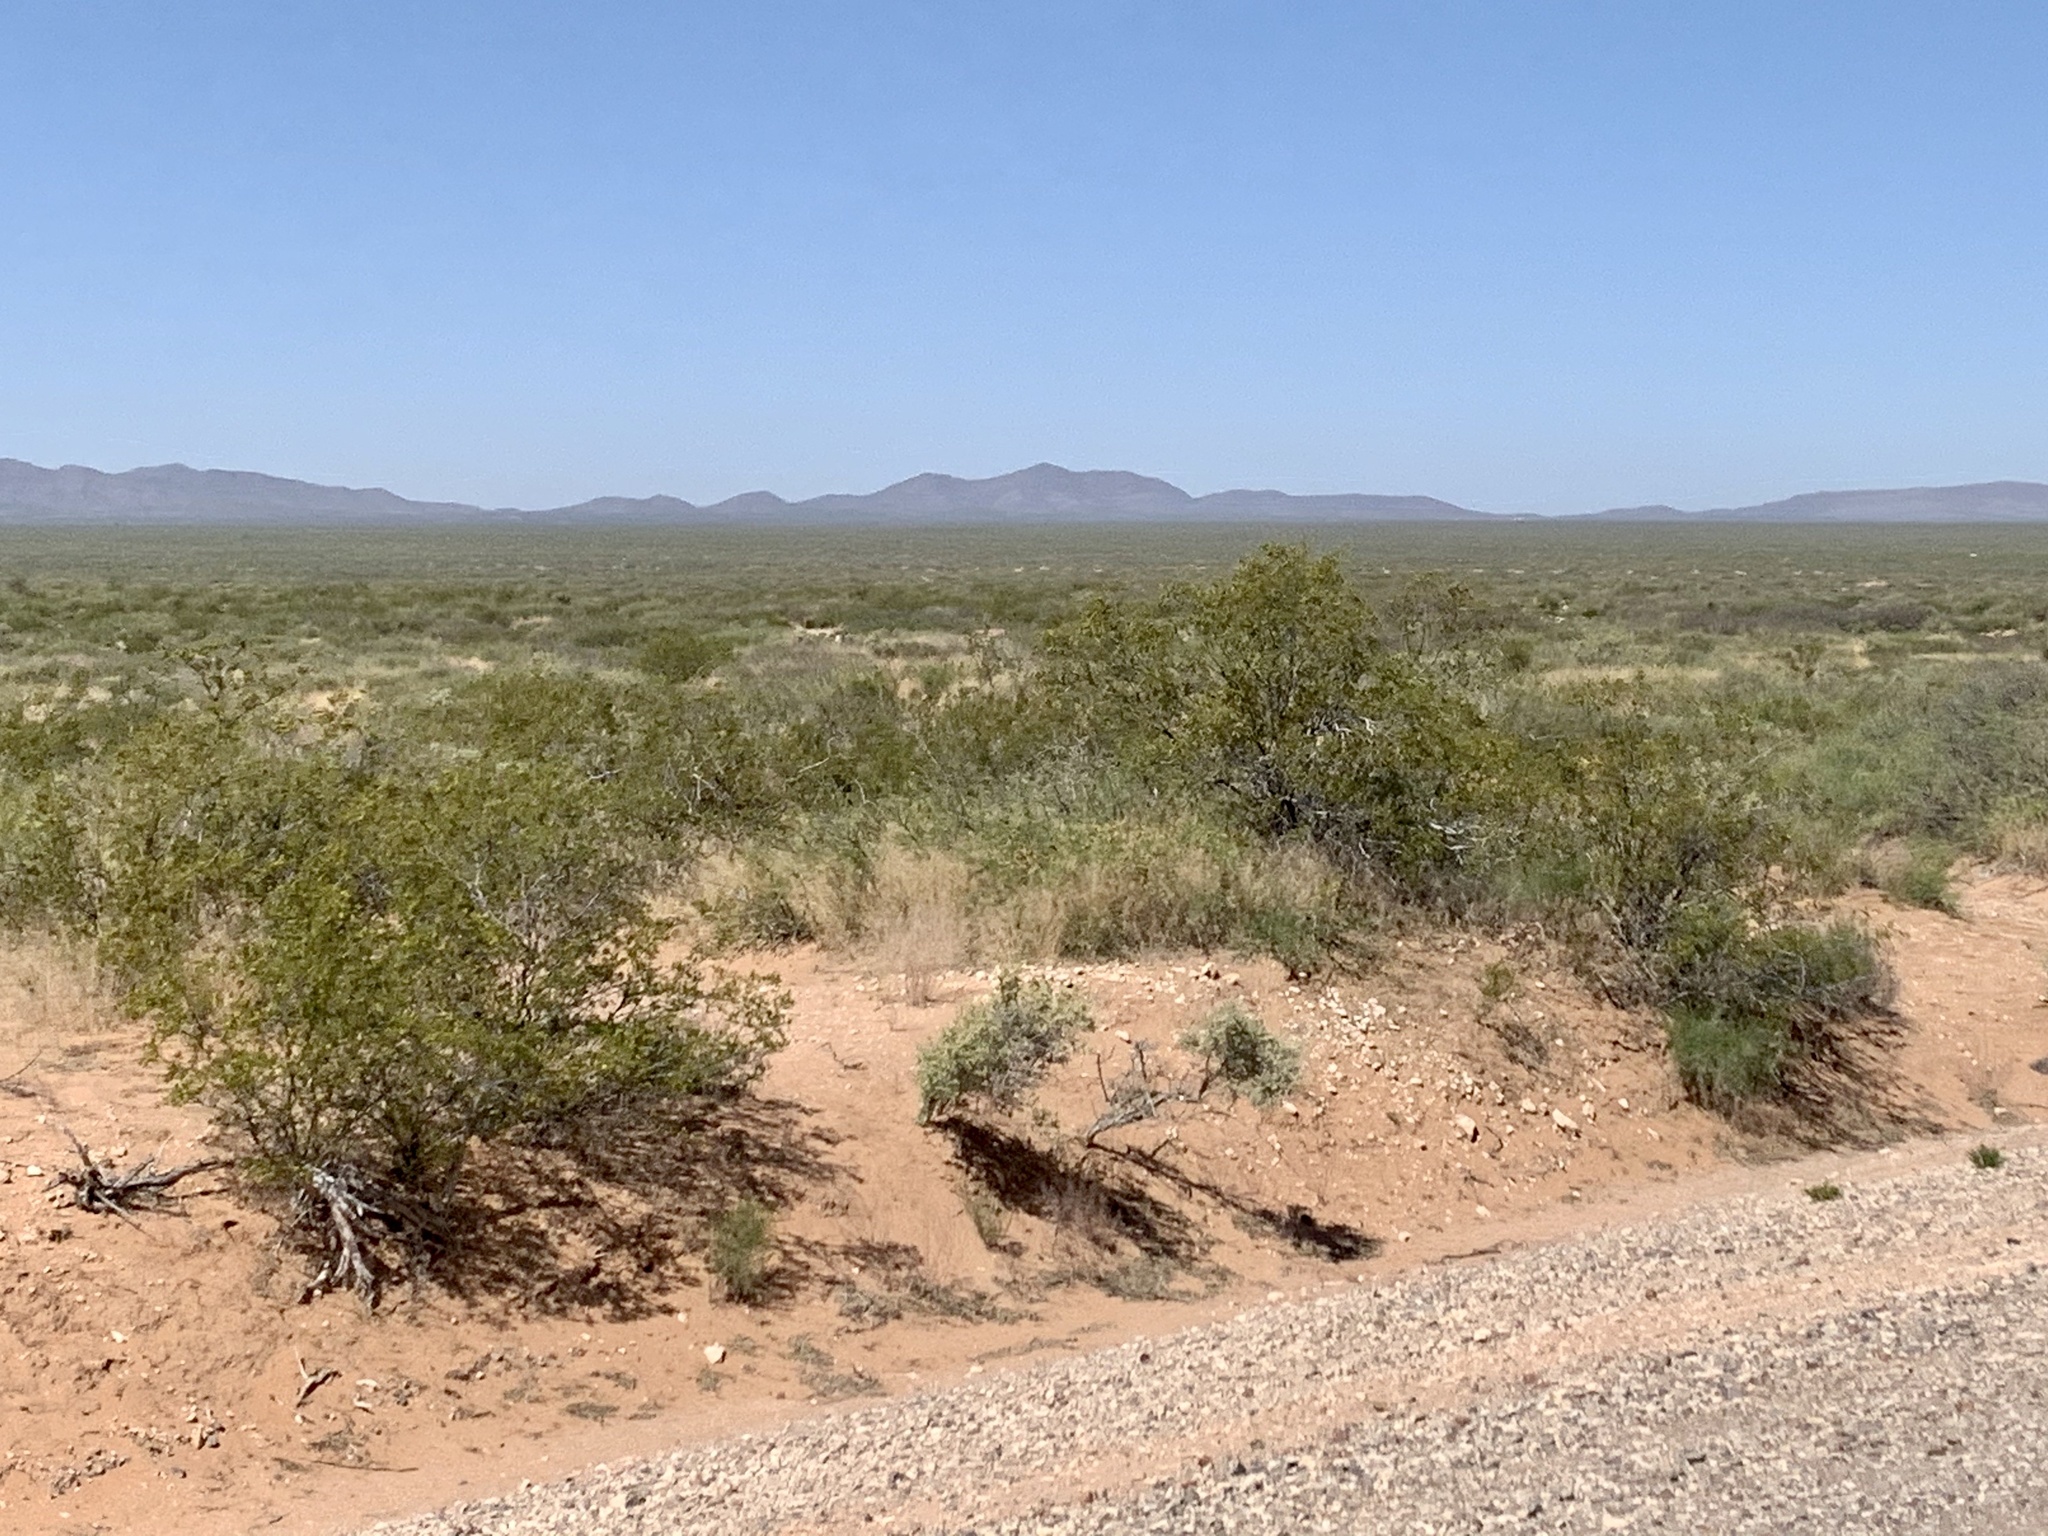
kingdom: Plantae
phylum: Tracheophyta
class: Magnoliopsida
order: Zygophyllales
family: Zygophyllaceae
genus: Larrea
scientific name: Larrea tridentata
